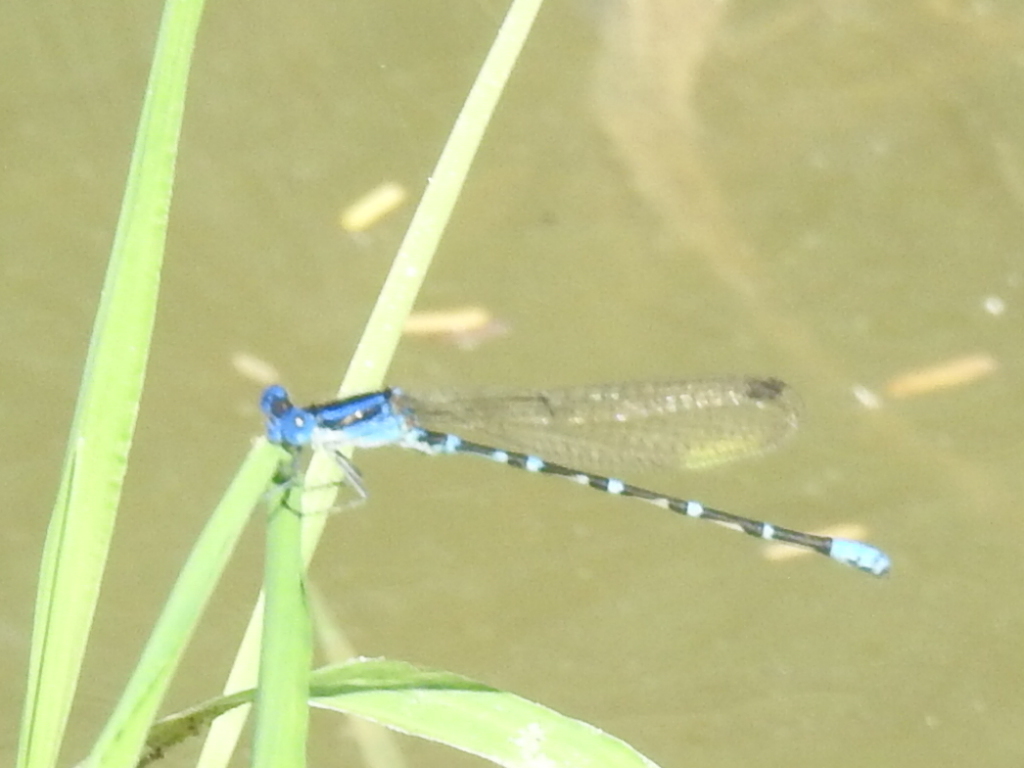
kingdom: Animalia
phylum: Arthropoda
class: Insecta
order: Odonata
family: Coenagrionidae
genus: Argia
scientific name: Argia sedula
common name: Blue-ringed dancer
